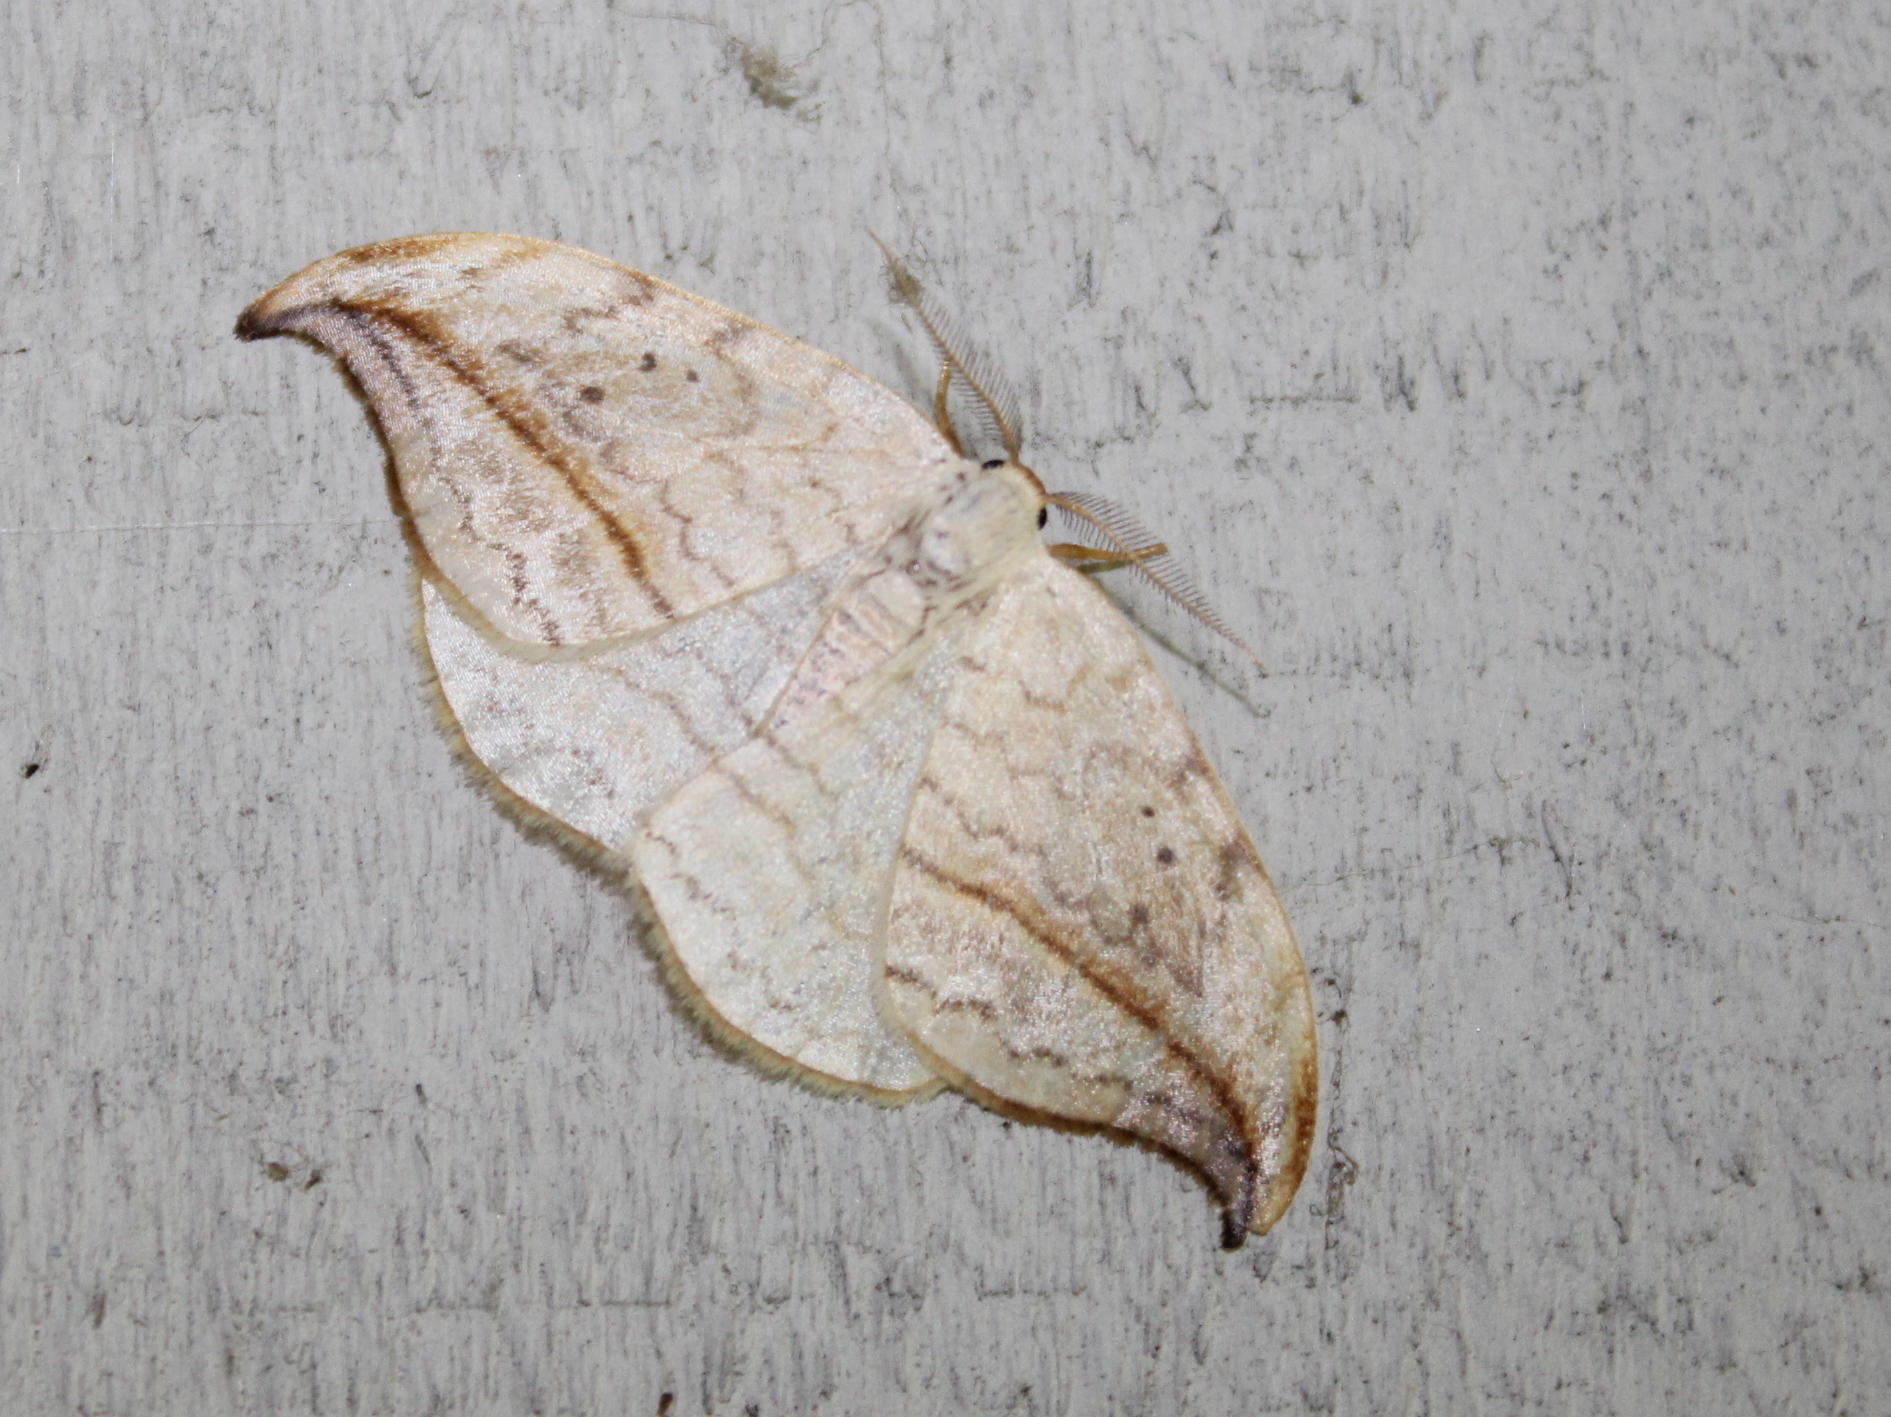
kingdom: Animalia
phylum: Arthropoda
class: Insecta
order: Lepidoptera
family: Drepanidae
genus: Drepana
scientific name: Drepana arcuata
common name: Arched hooktip moth
